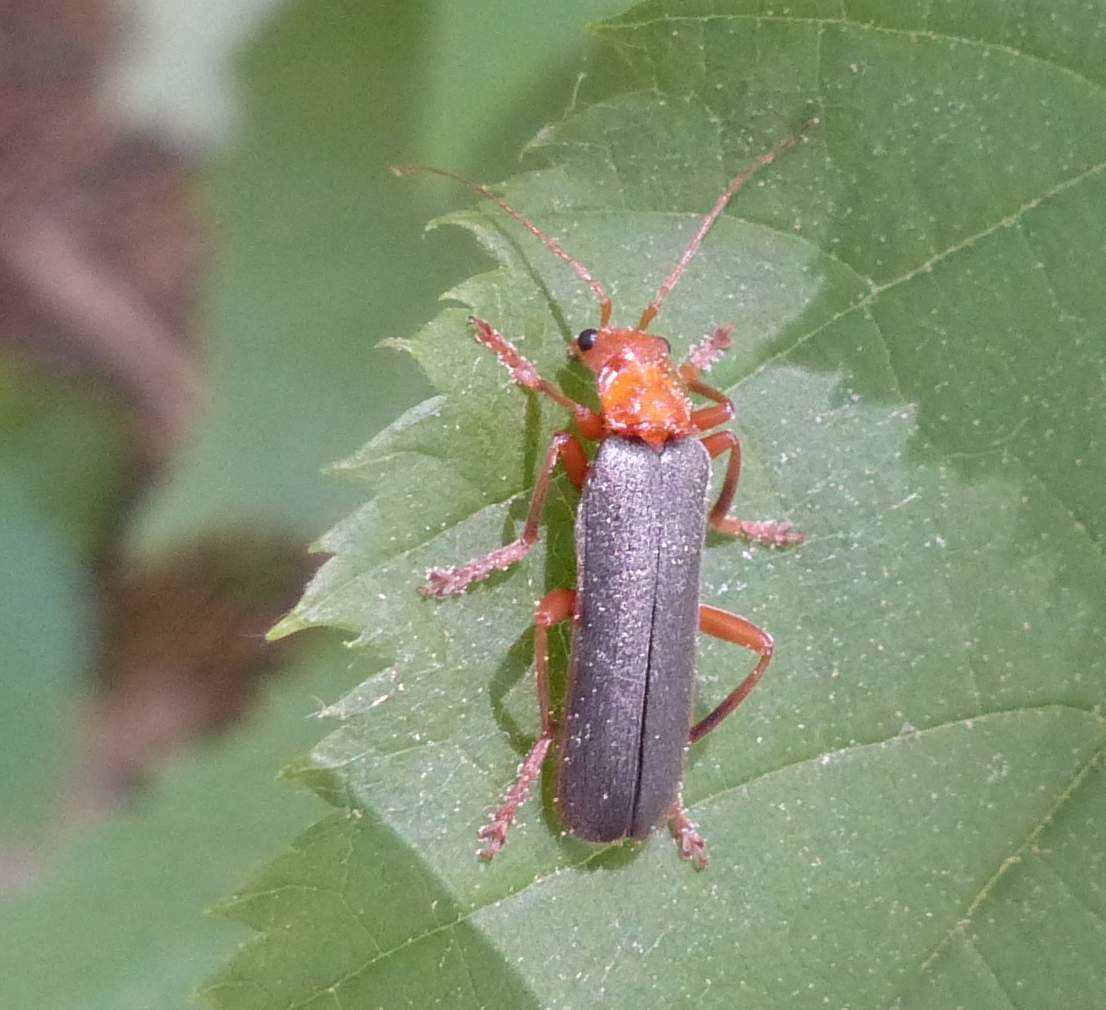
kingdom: Animalia
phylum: Arthropoda
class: Insecta
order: Coleoptera
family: Cantharidae
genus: Pacificanthia
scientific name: Pacificanthia rotundicollis
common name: Brown leatherwing beetle
